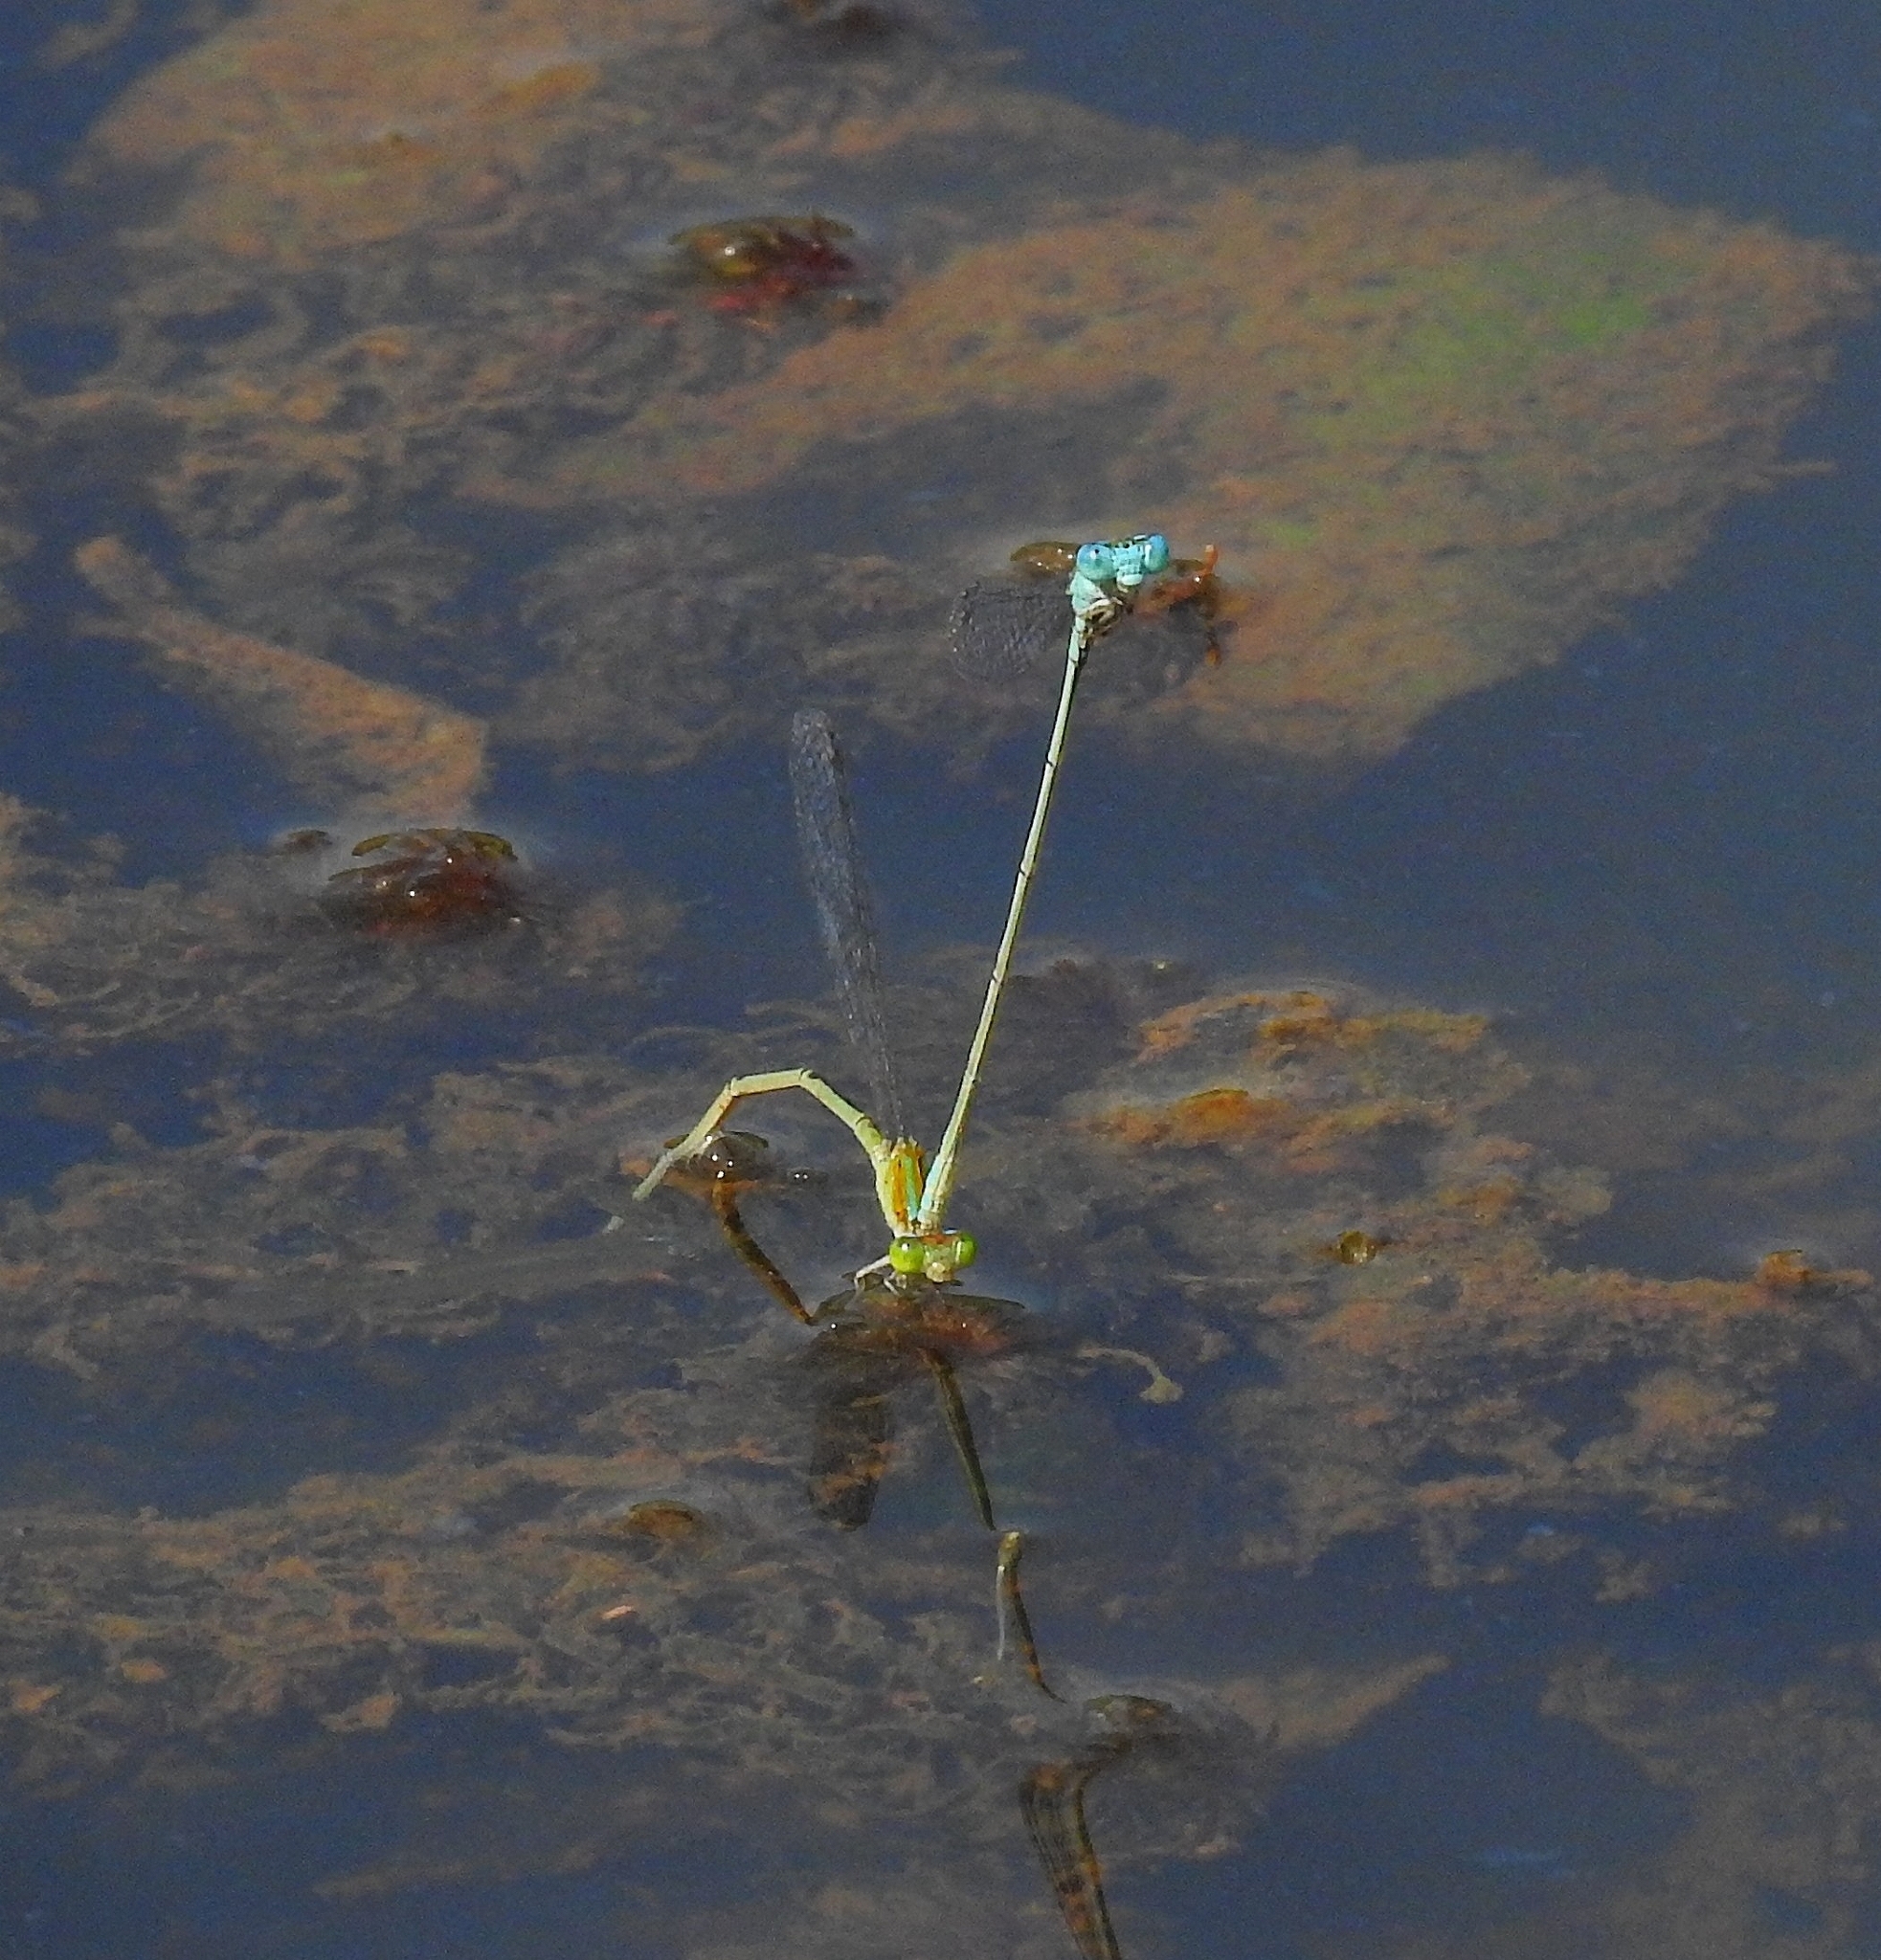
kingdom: Animalia
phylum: Arthropoda
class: Insecta
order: Odonata
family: Coenagrionidae
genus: Pseudagrion
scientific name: Pseudagrion microcephalum
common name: Blue riverdamsel
